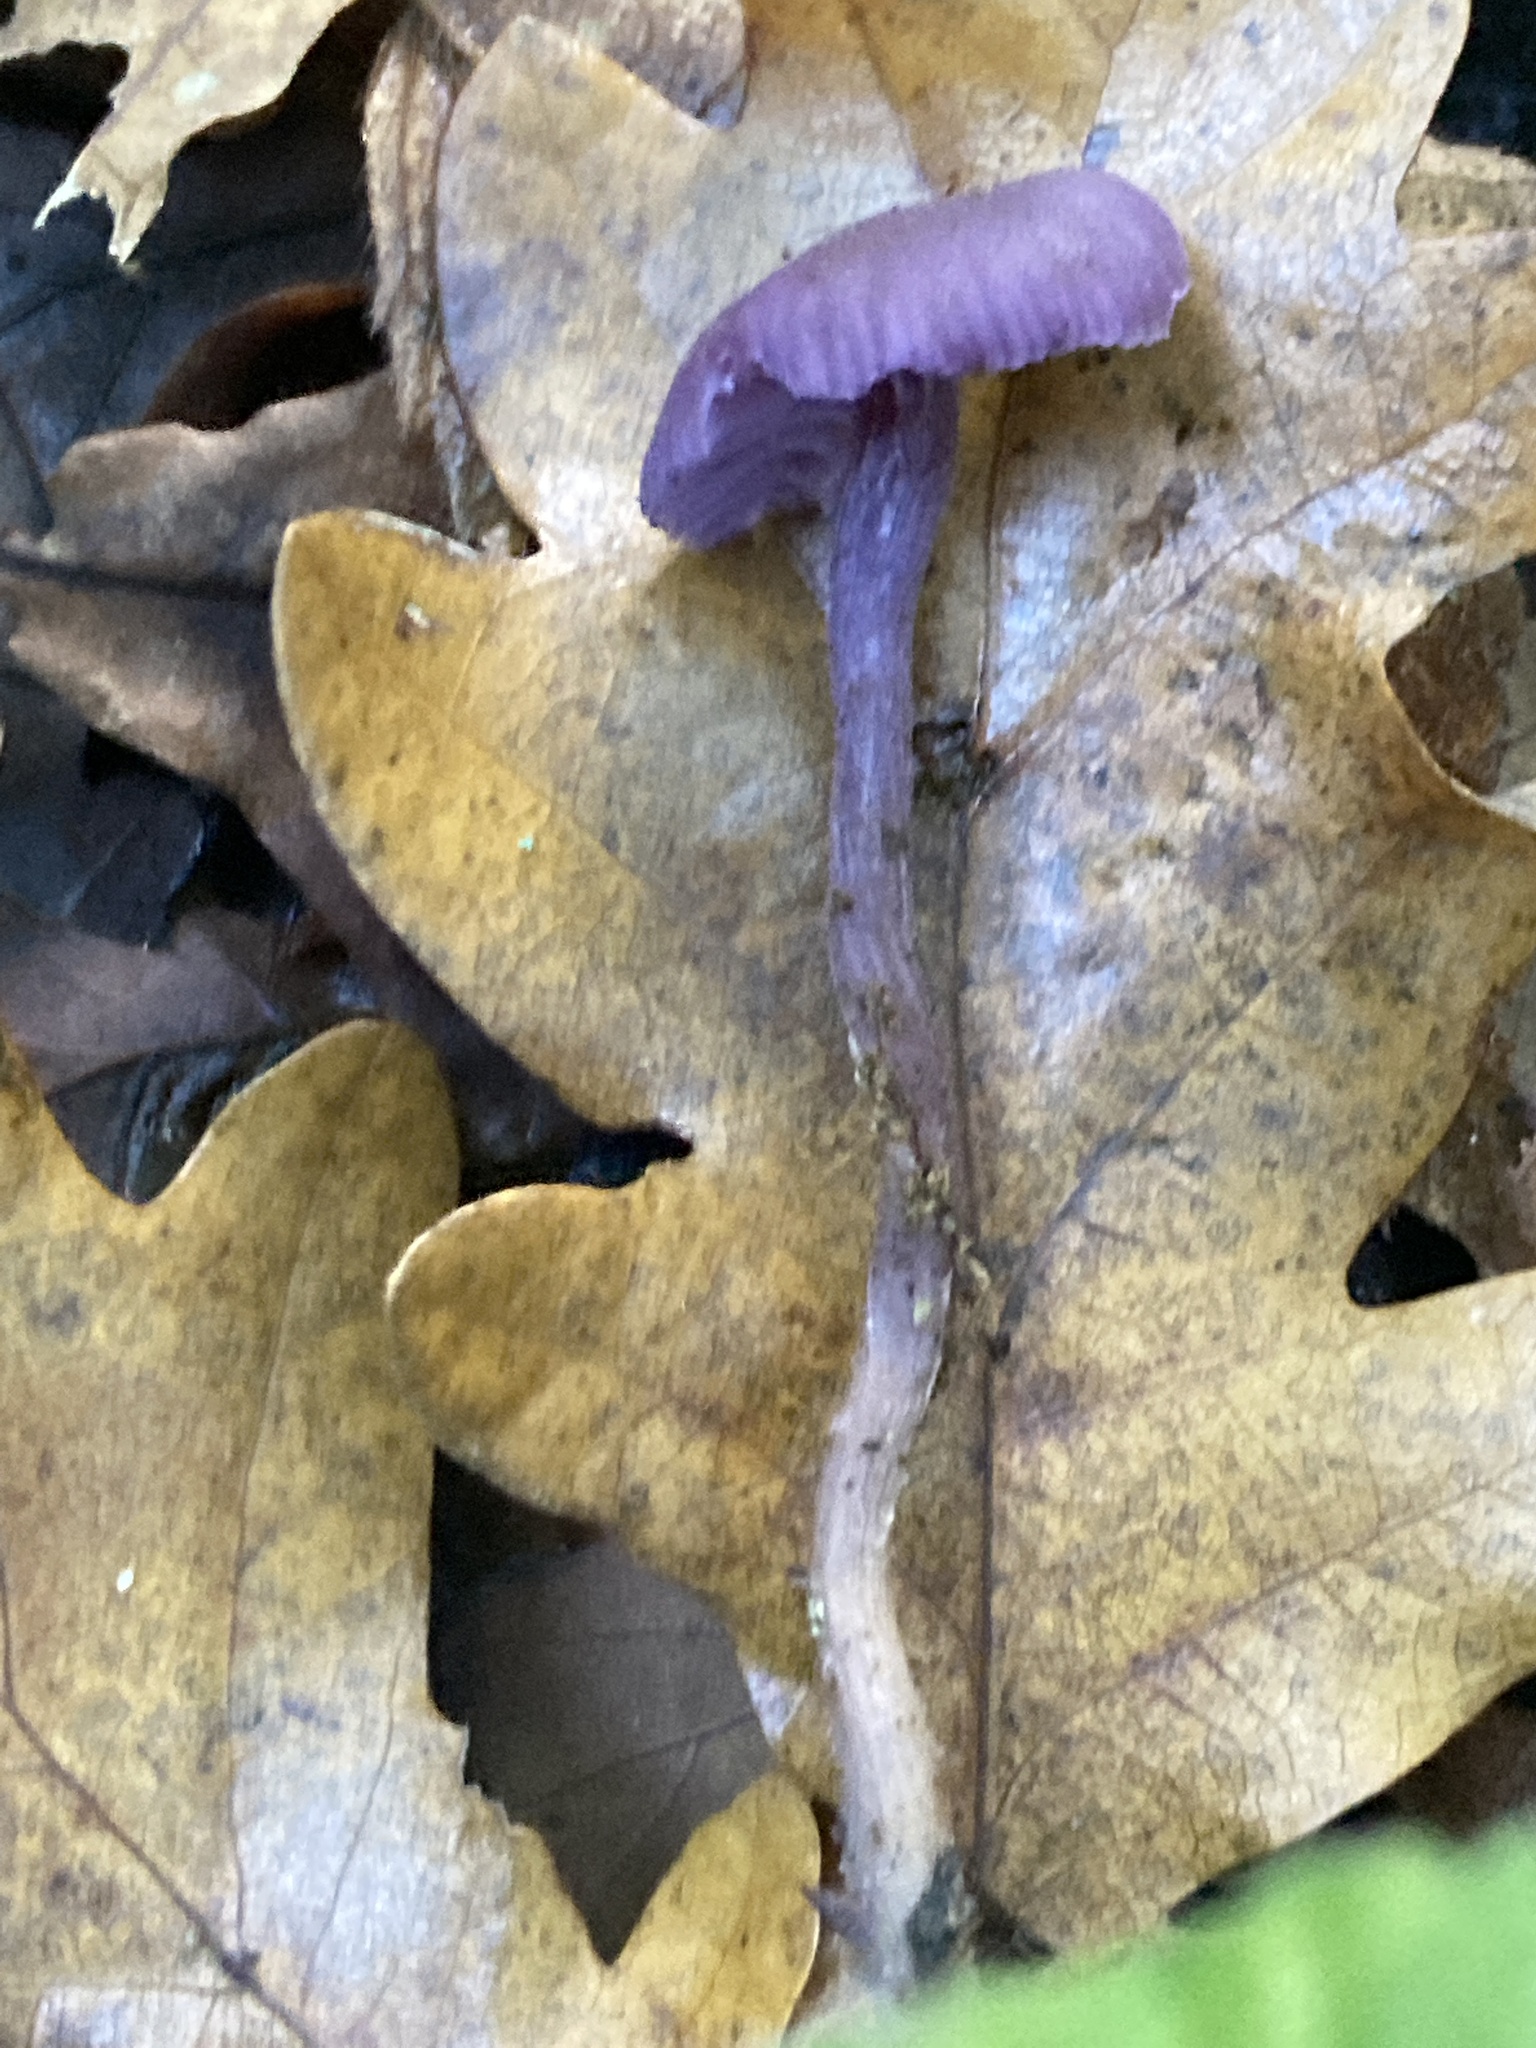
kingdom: Fungi
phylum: Basidiomycota
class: Agaricomycetes
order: Agaricales
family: Hydnangiaceae
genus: Laccaria
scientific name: Laccaria amethystina
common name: Amethyst deceiver
